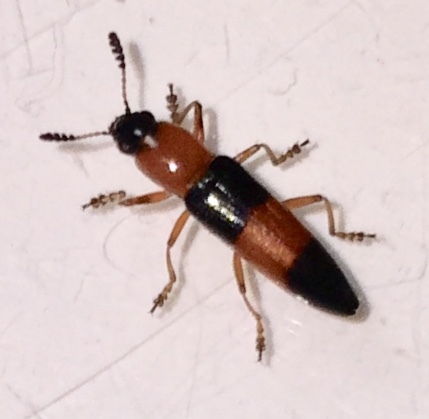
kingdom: Animalia
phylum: Arthropoda
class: Insecta
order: Coleoptera
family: Erotylidae
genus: Languria
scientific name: Languria trifasciata
